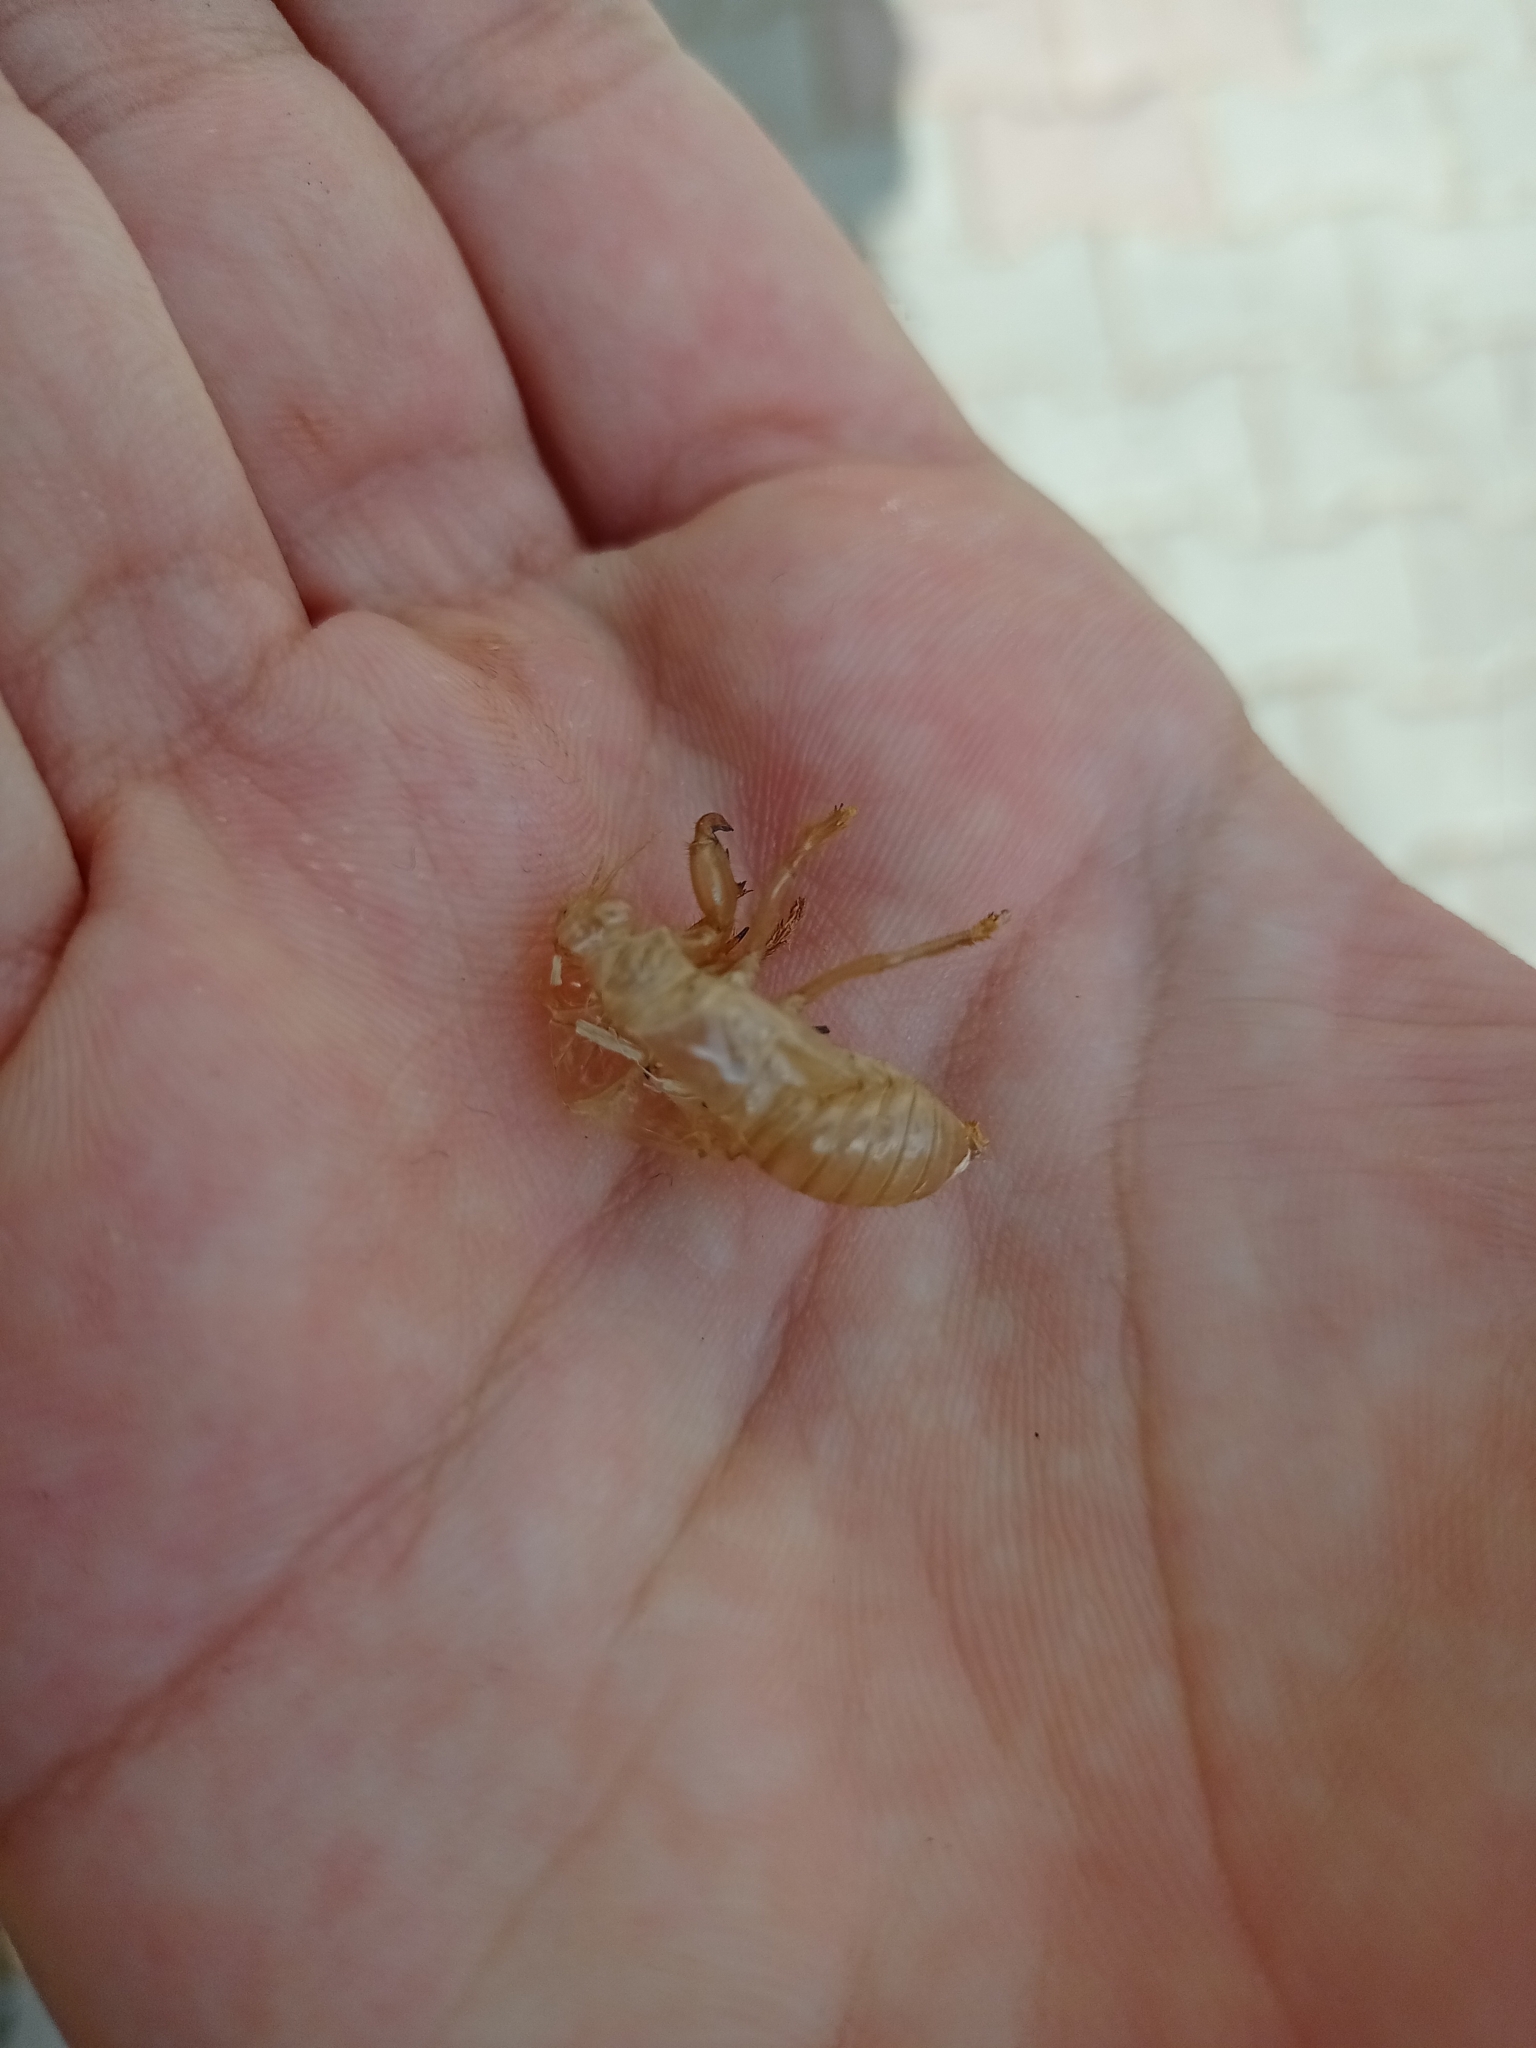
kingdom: Animalia
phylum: Arthropoda
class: Insecta
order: Hemiptera
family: Cicadidae
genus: Cicada
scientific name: Cicada mordoganensis
